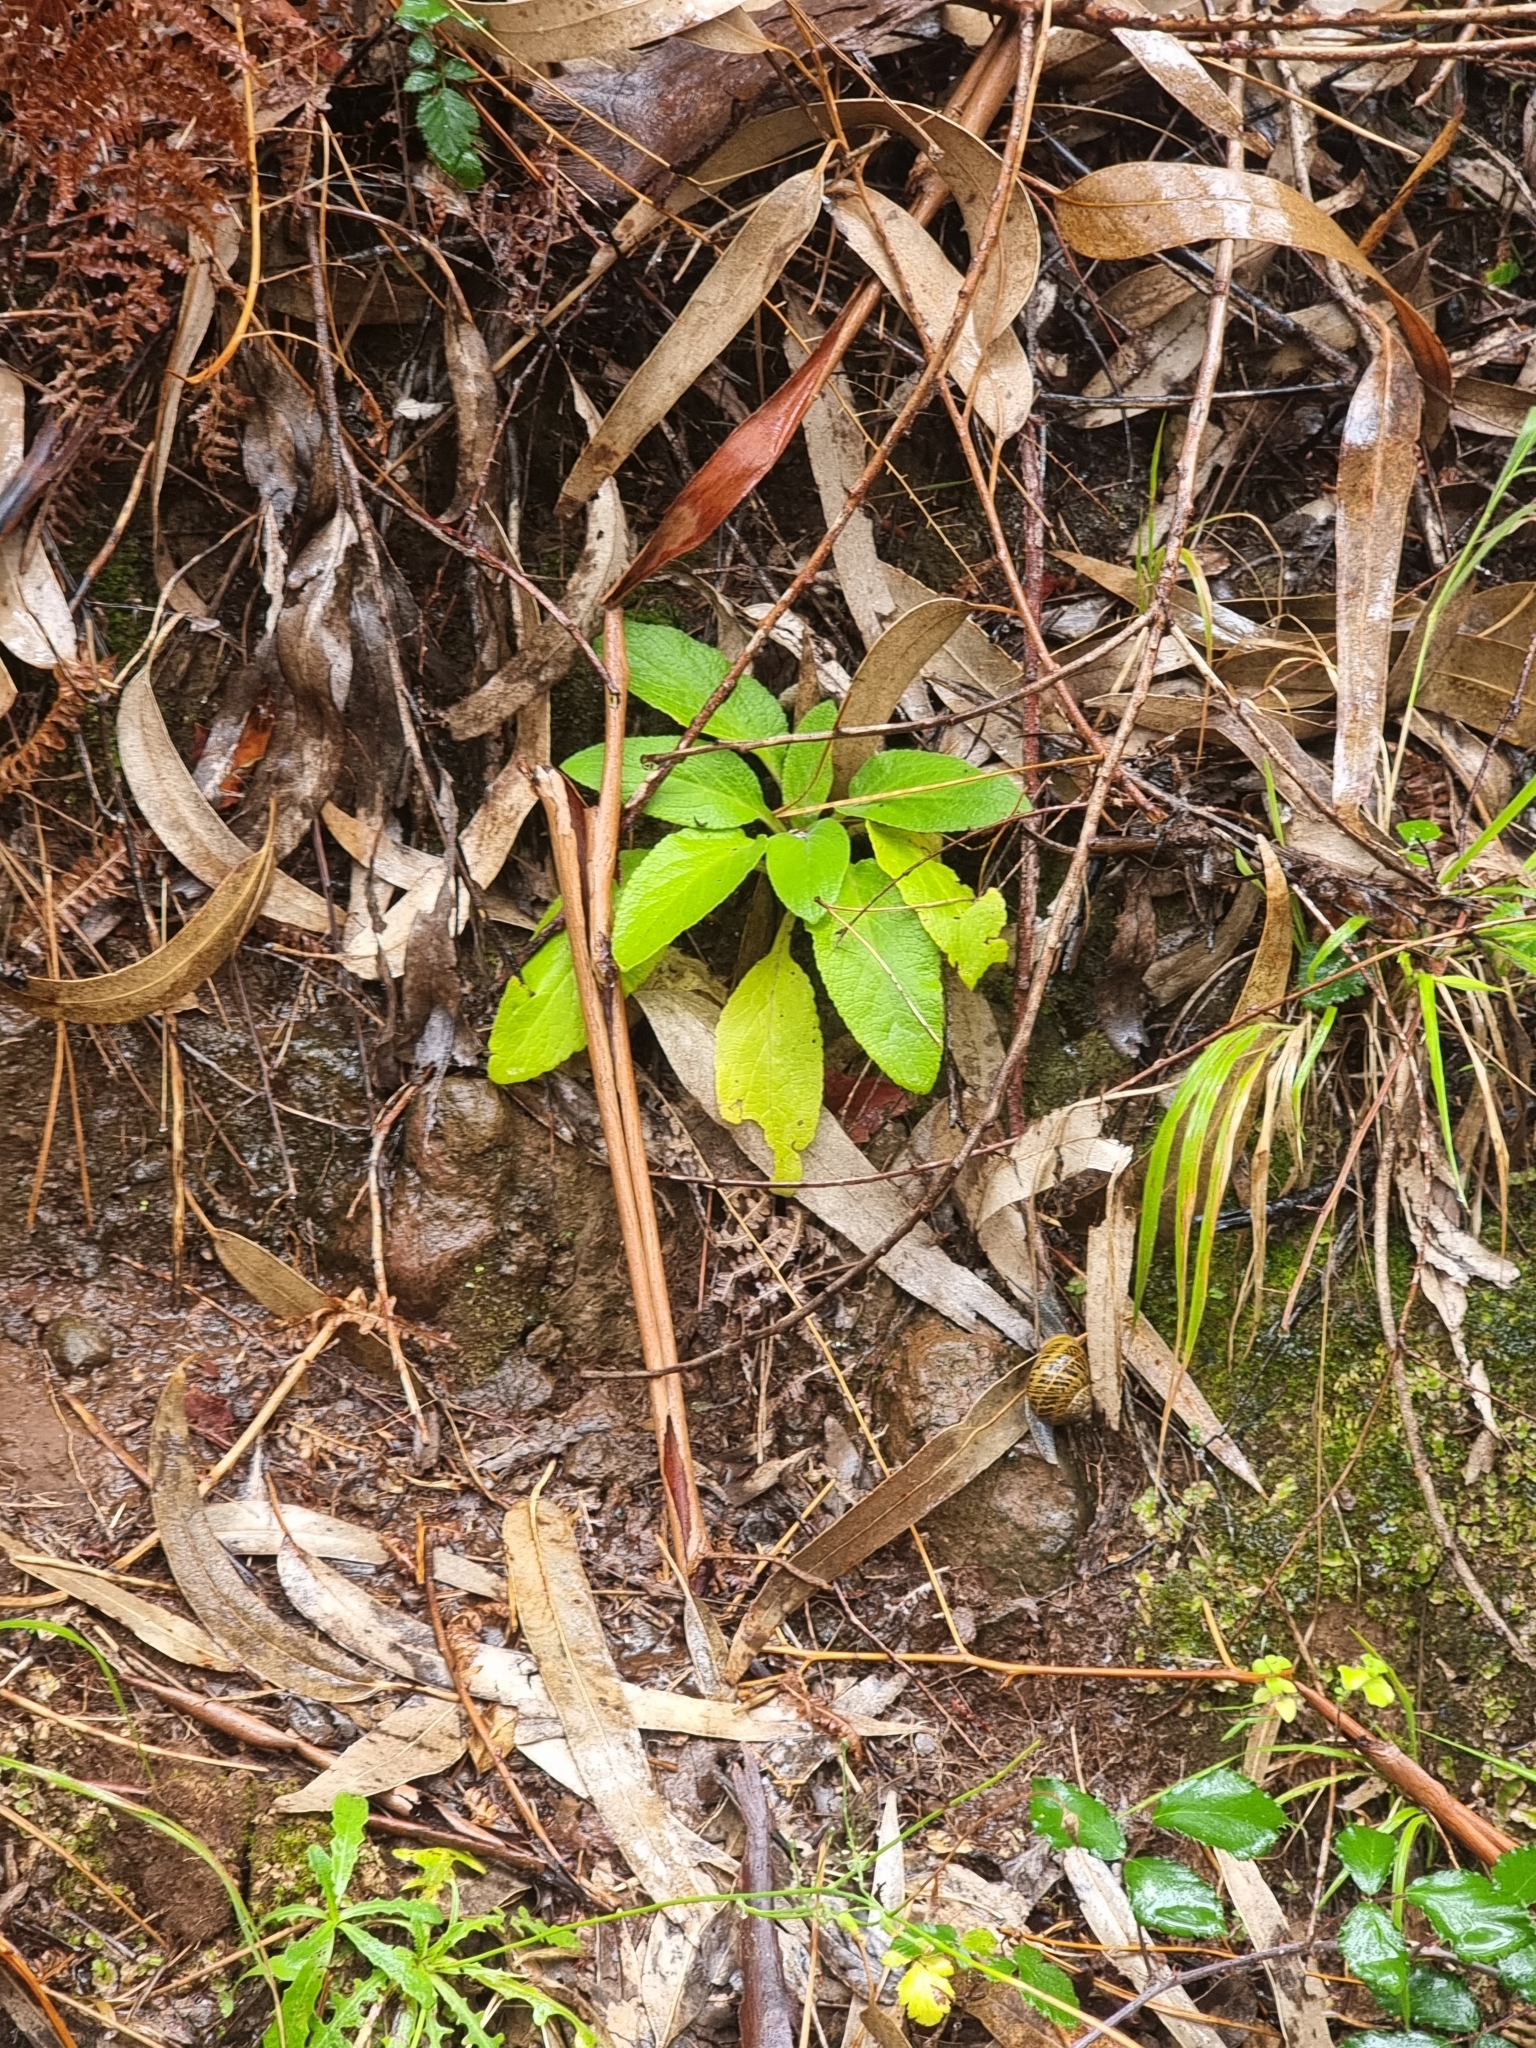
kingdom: Plantae
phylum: Tracheophyta
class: Magnoliopsida
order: Lamiales
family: Plantaginaceae
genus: Digitalis
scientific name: Digitalis purpurea
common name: Foxglove
